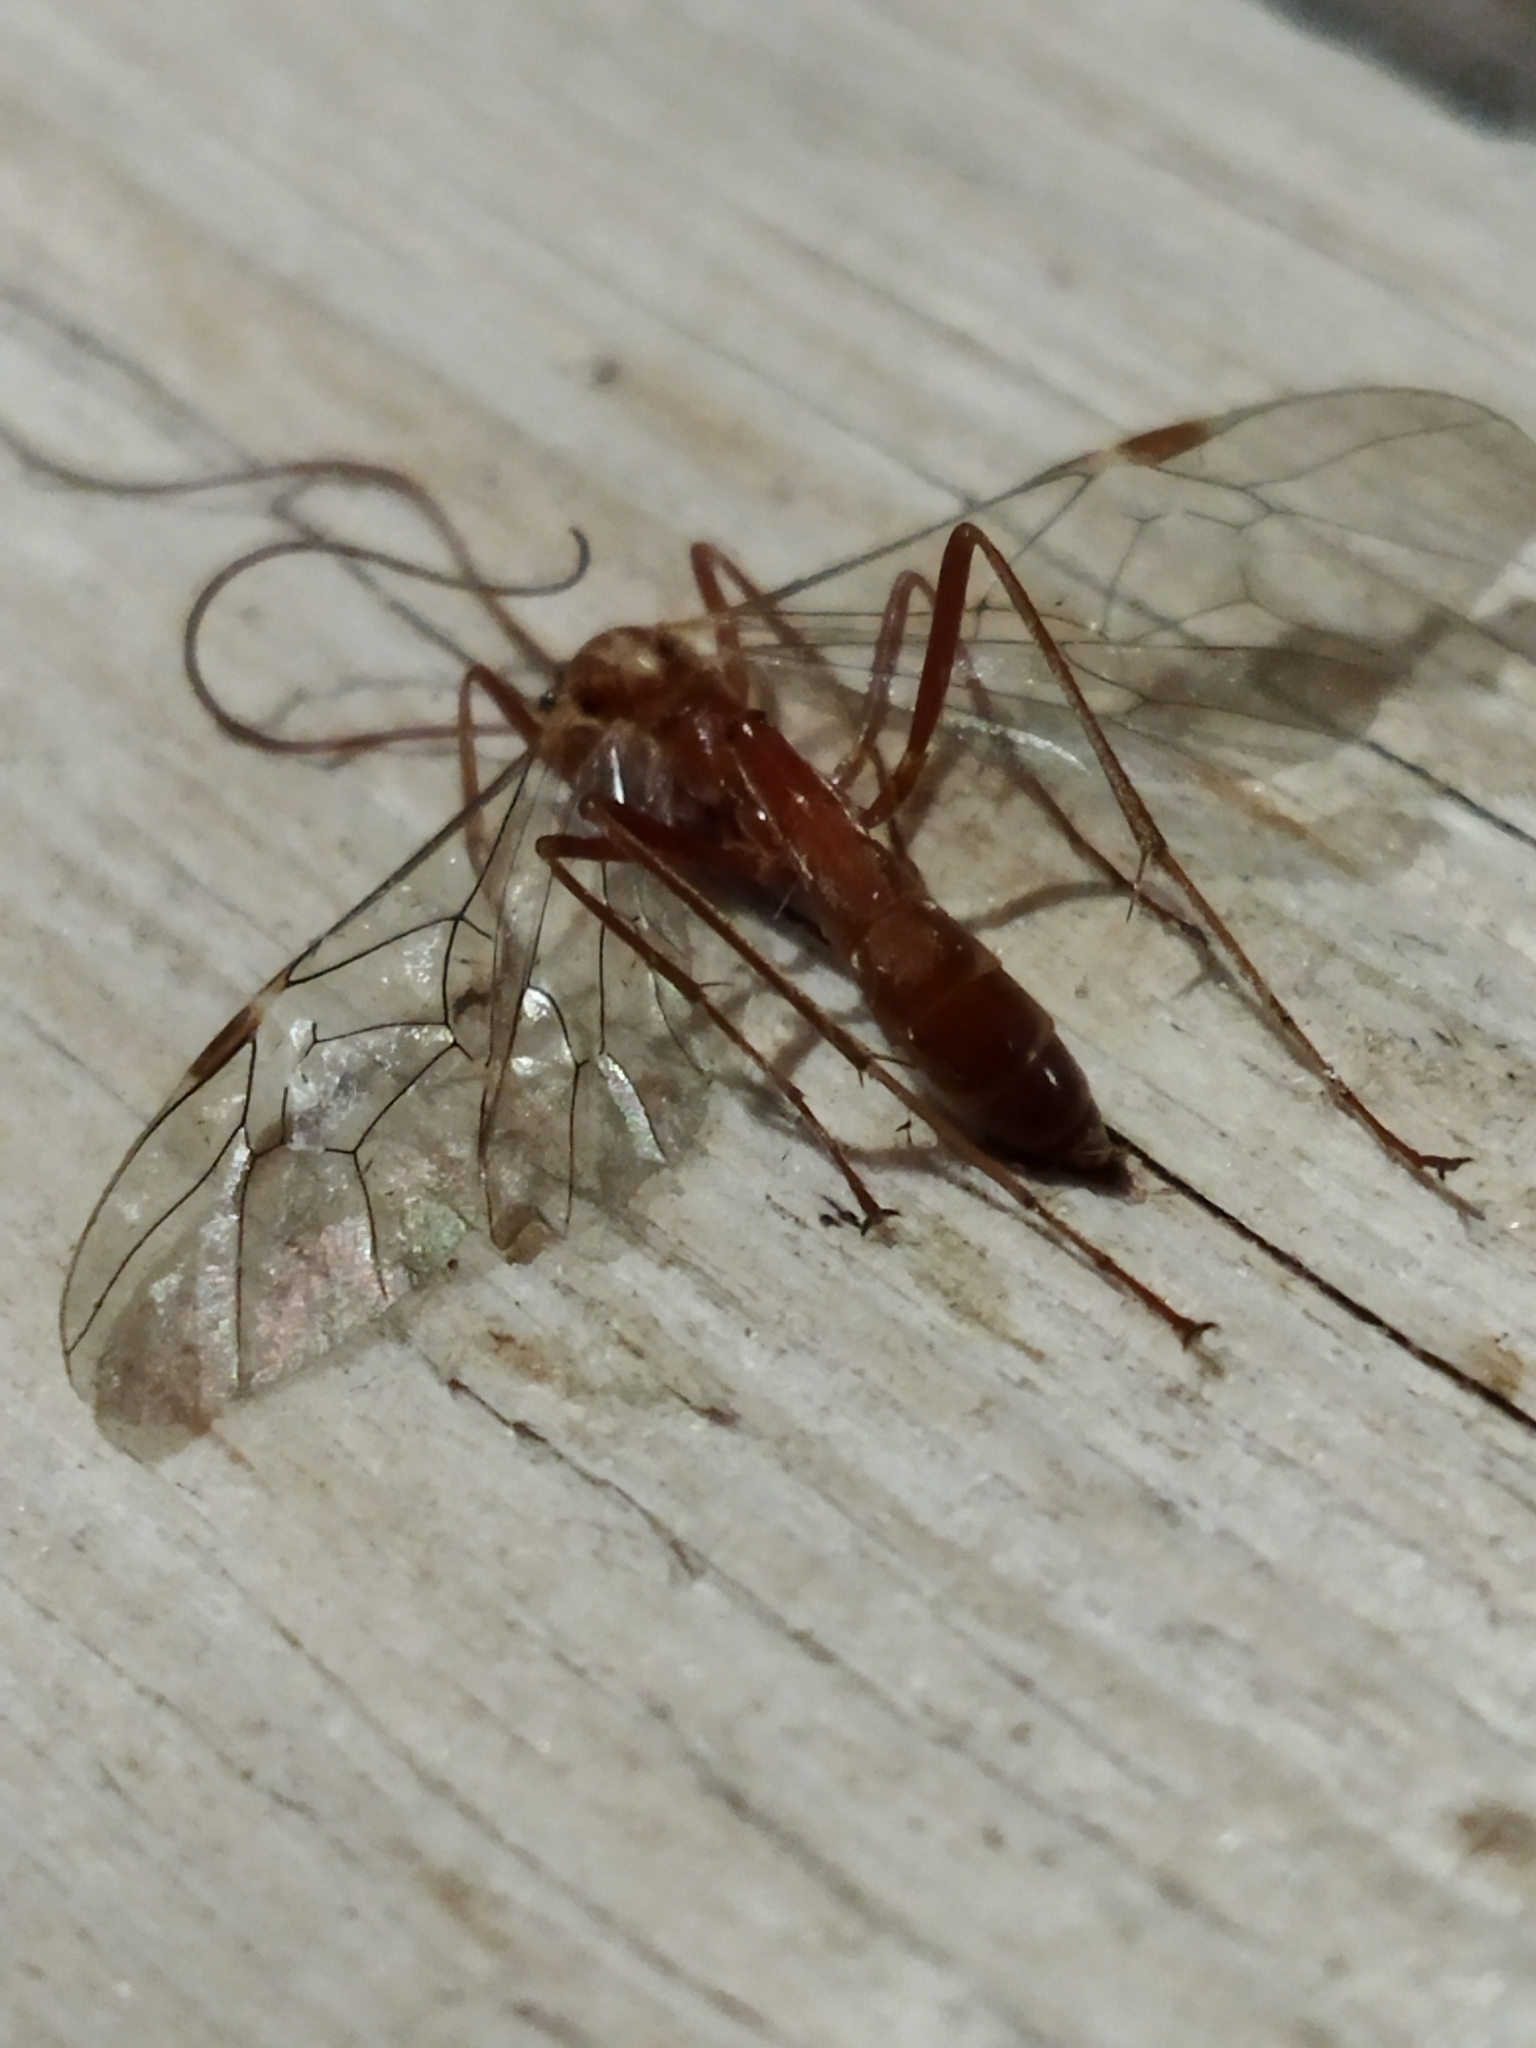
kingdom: Animalia
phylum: Arthropoda
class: Insecta
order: Hymenoptera
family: Ichneumonidae
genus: Ophion
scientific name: Ophion
